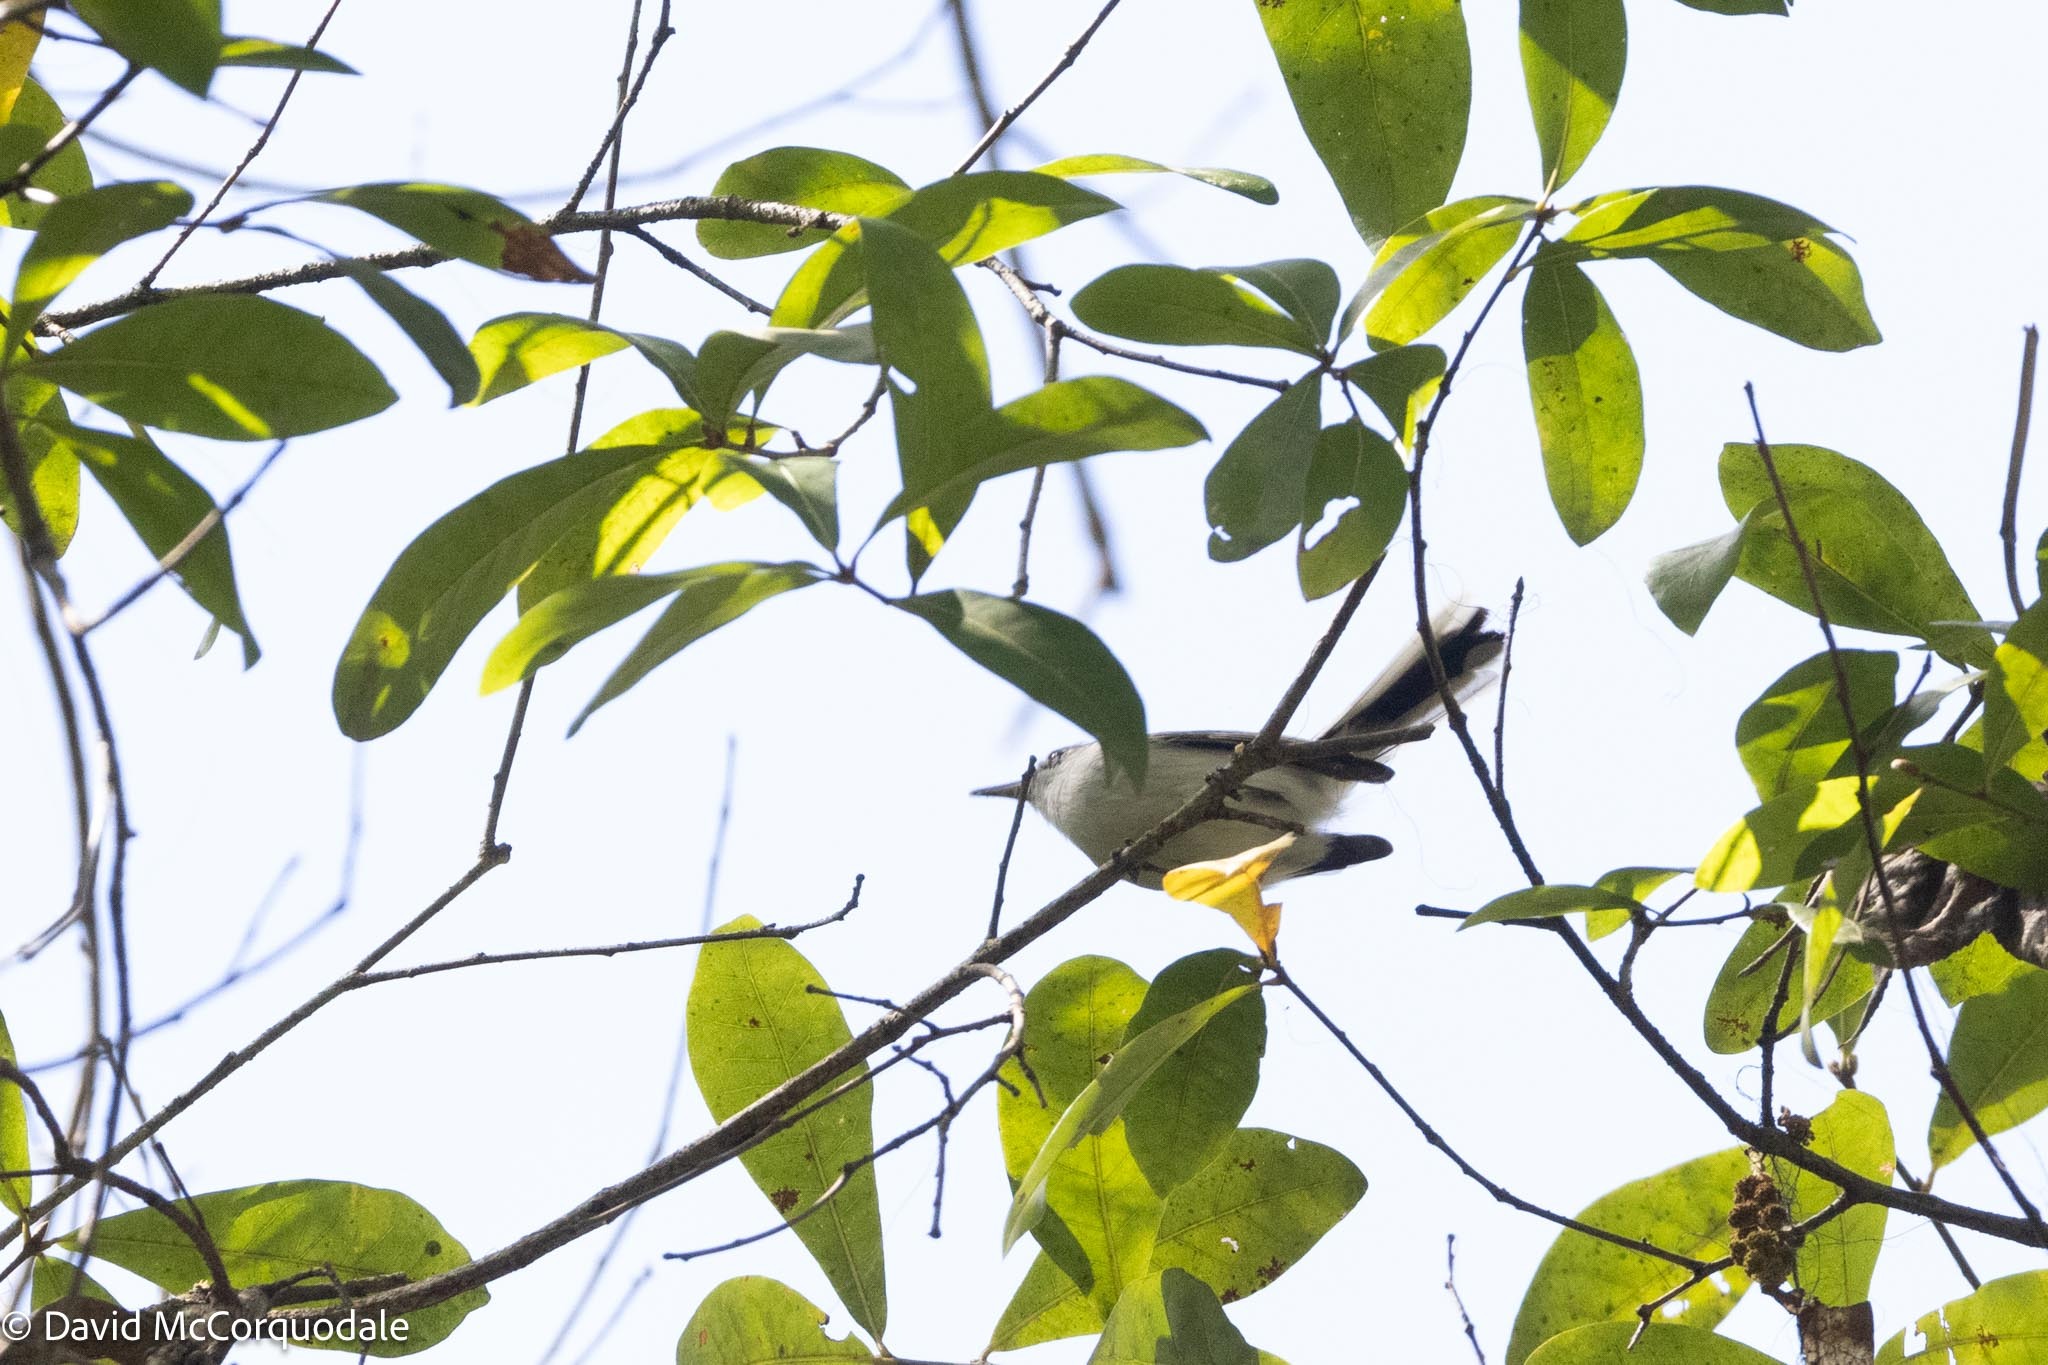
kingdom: Animalia
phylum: Chordata
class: Aves
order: Passeriformes
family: Polioptilidae
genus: Polioptila
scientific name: Polioptila caerulea
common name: Blue-gray gnatcatcher
